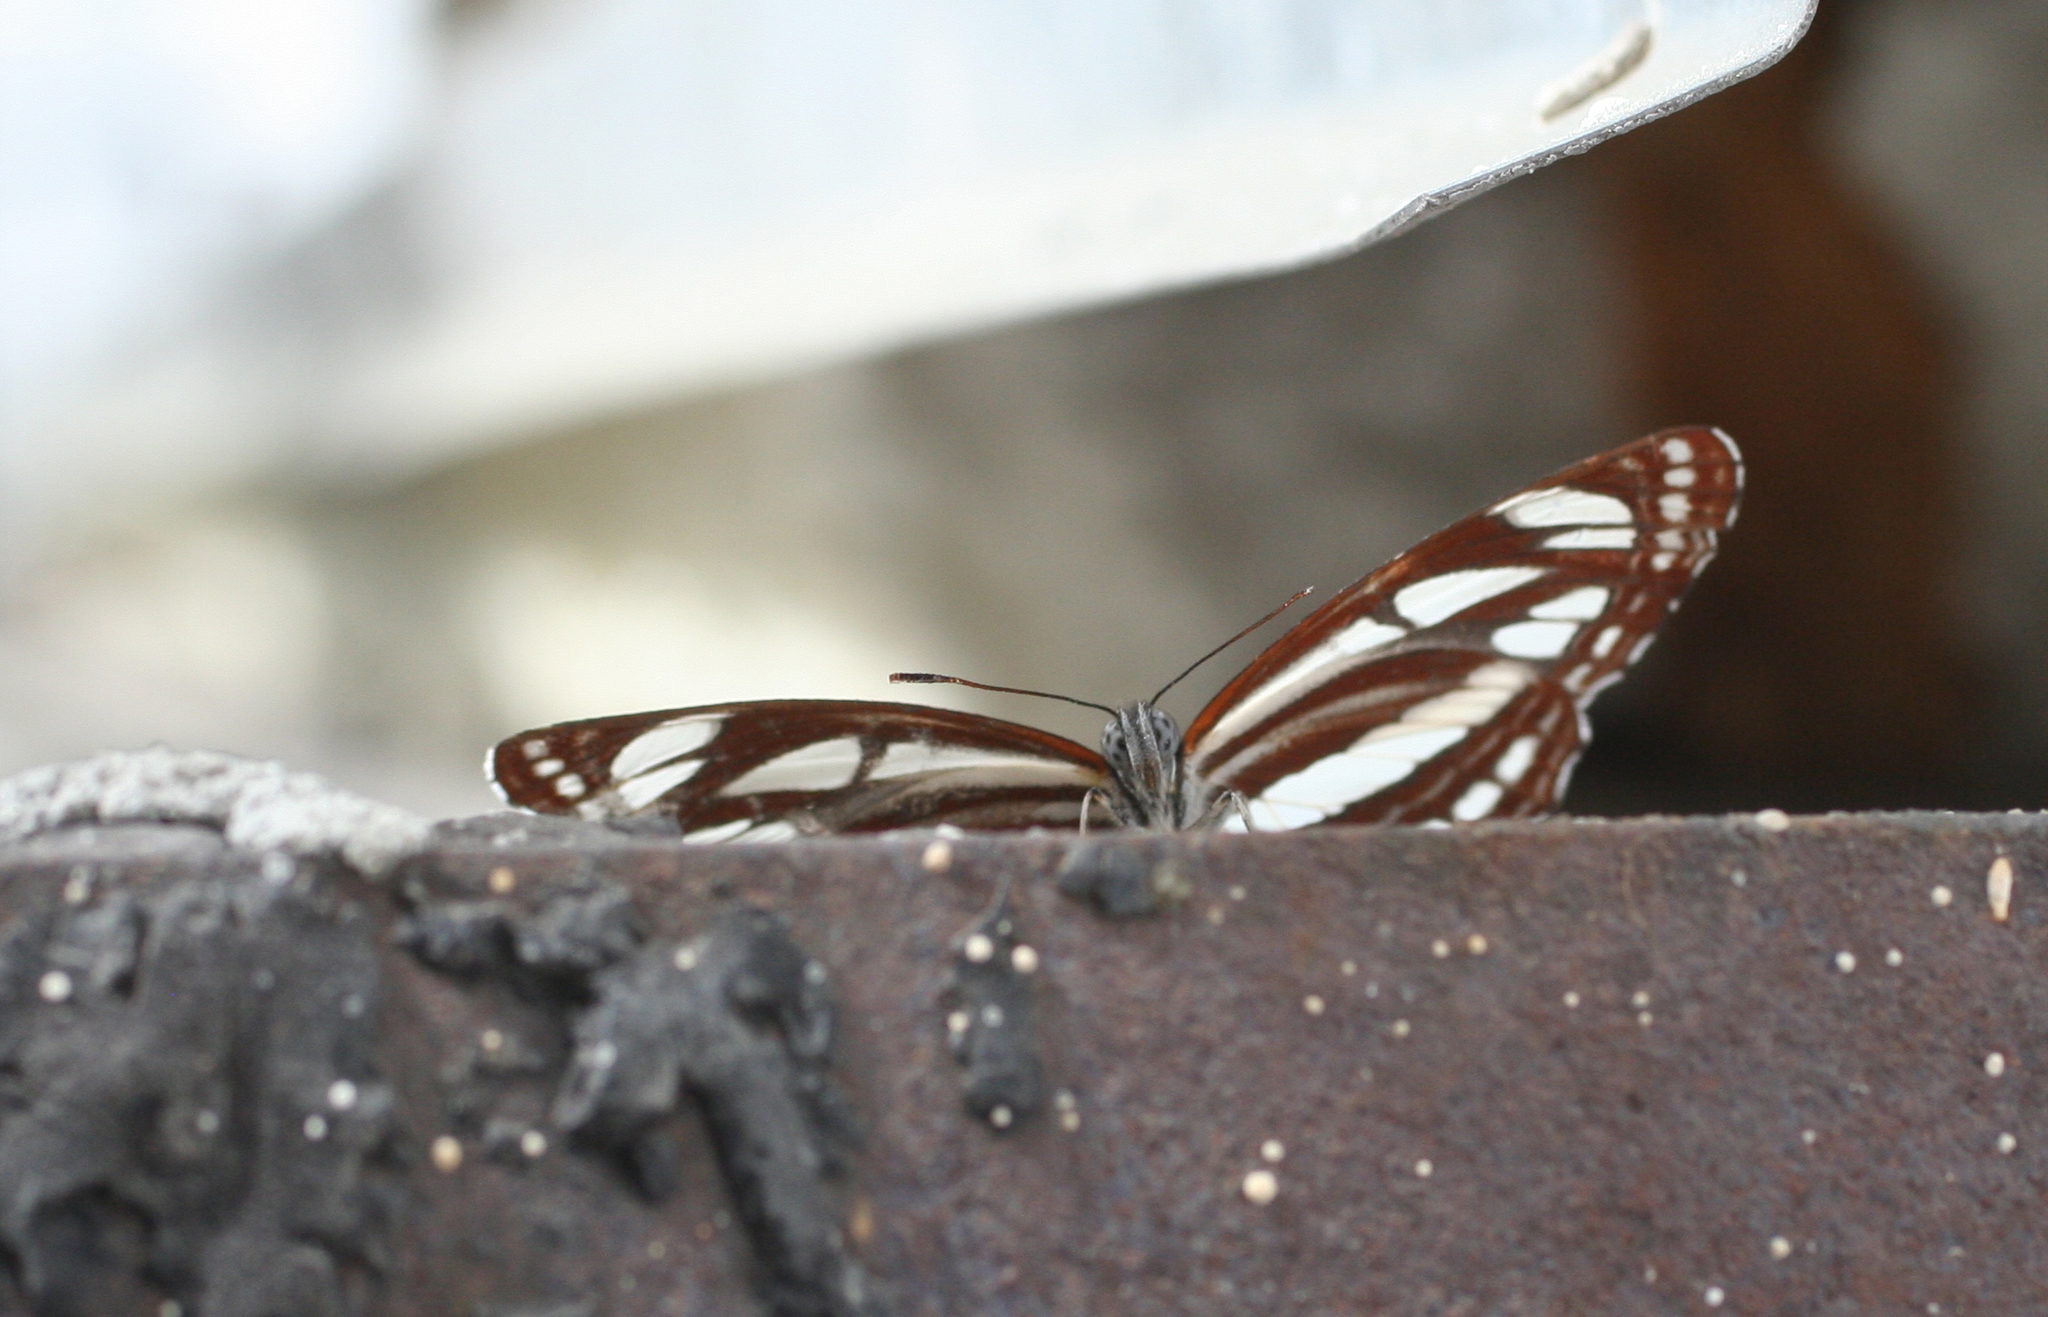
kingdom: Animalia
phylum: Arthropoda
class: Insecta
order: Lepidoptera
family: Nymphalidae
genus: Neptis
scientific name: Neptis sappho
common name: Common glider
